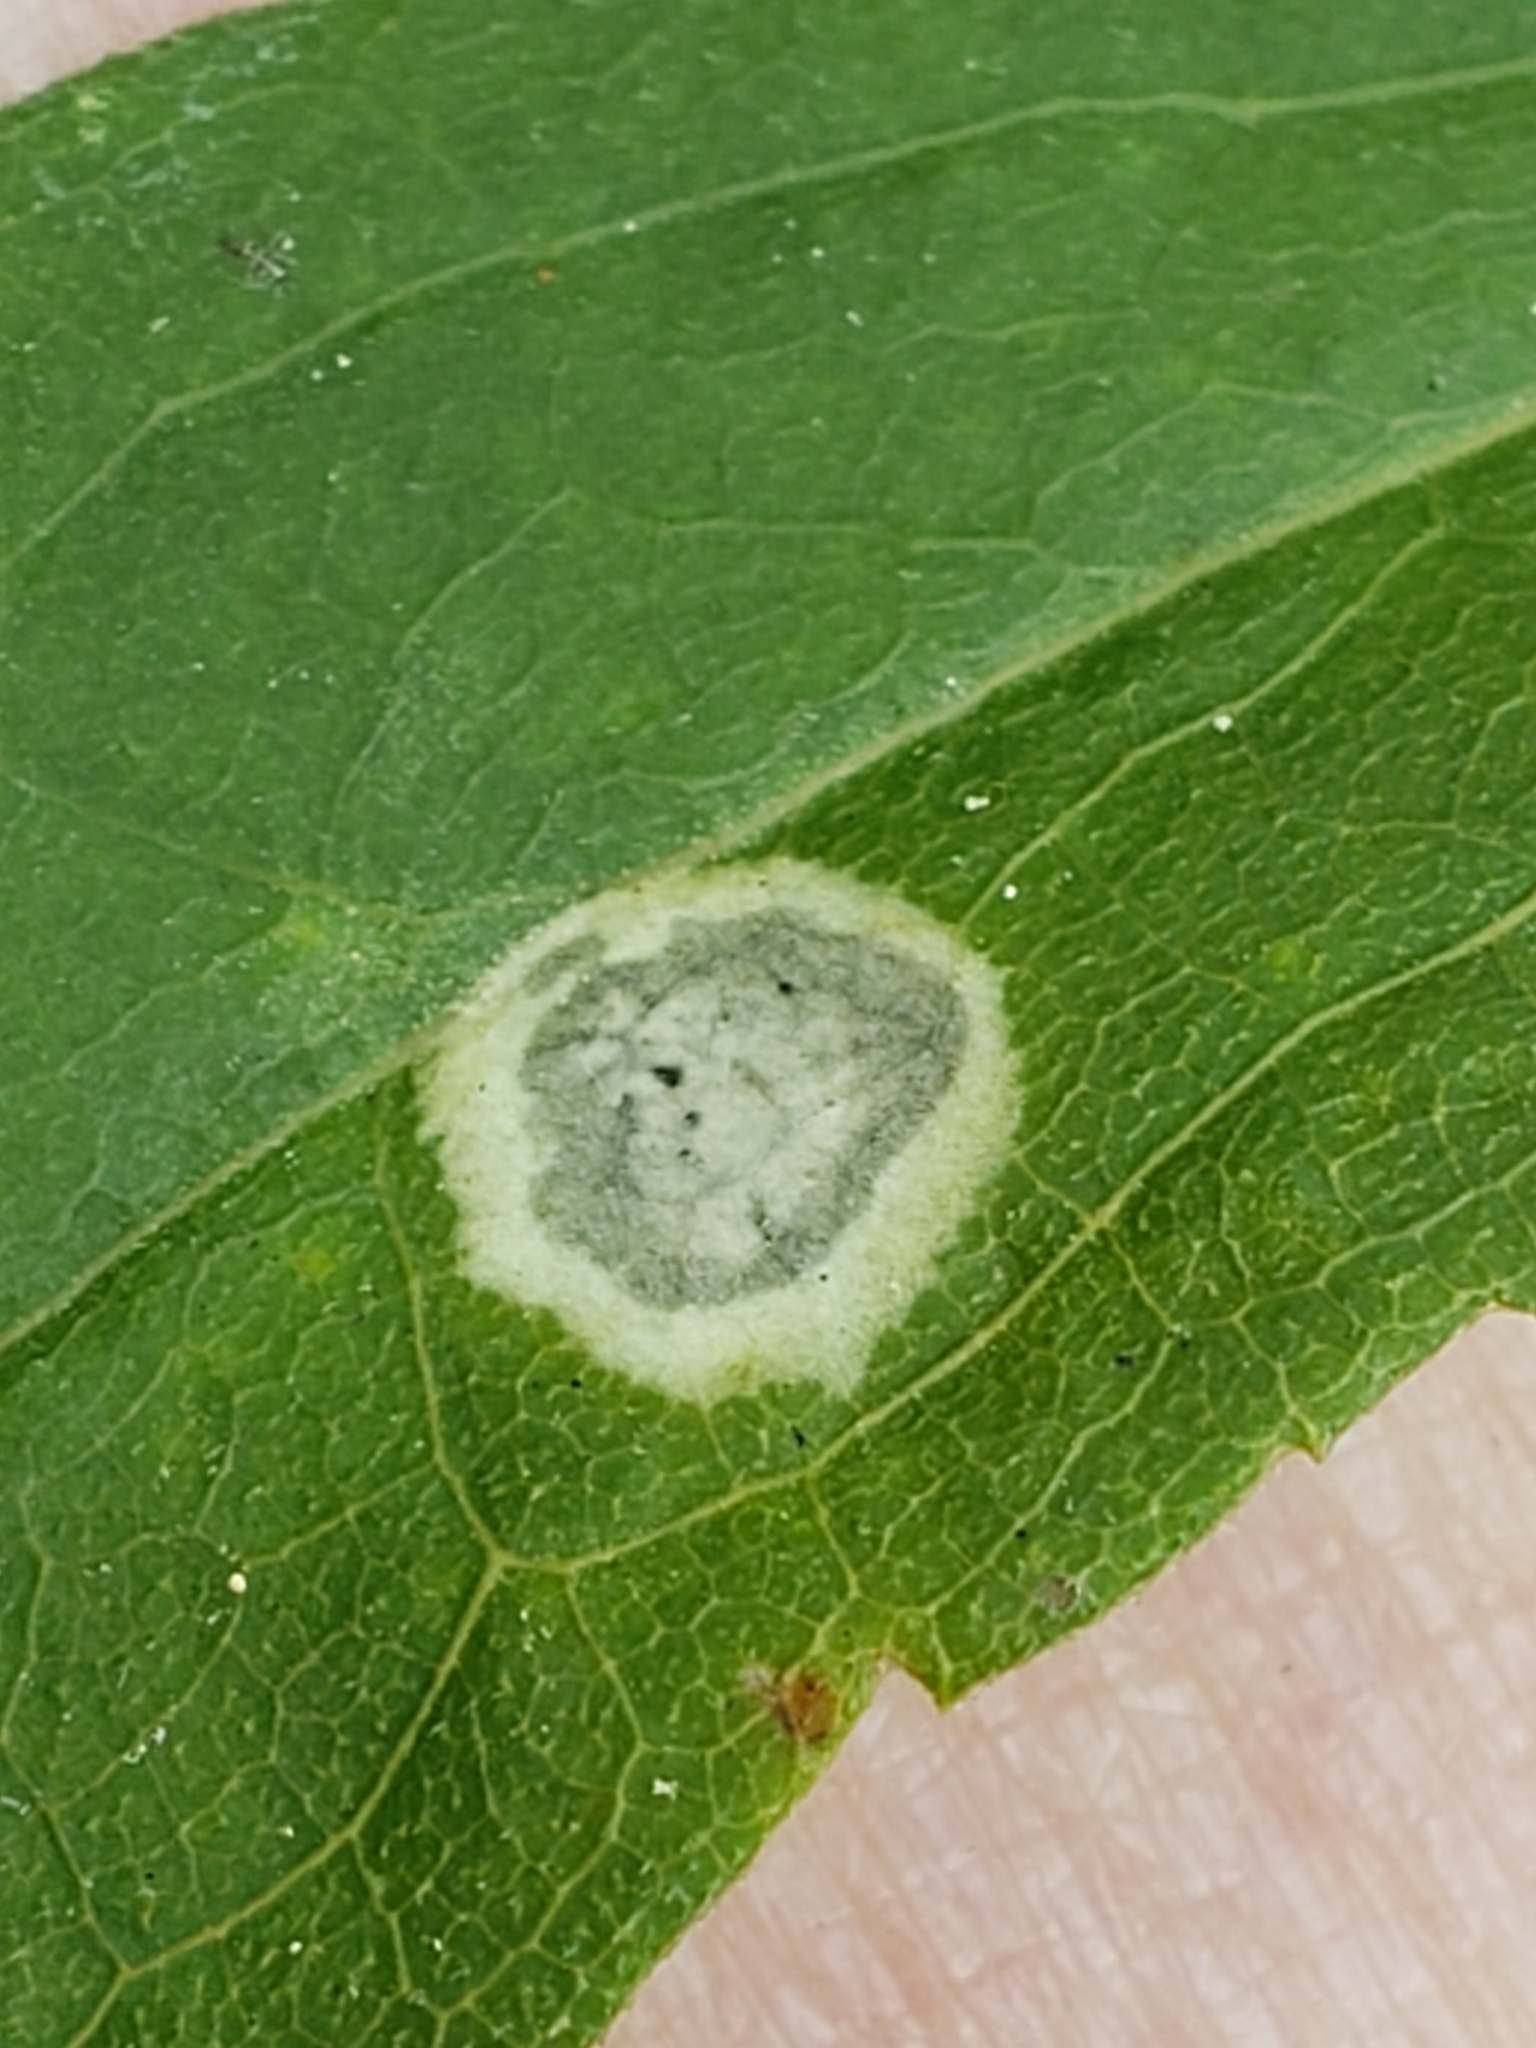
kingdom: Animalia
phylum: Arthropoda
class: Insecta
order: Diptera
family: Cecidomyiidae
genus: Asteromyia
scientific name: Asteromyia carbonifera
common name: Carbonifera goldenrod gall midge
